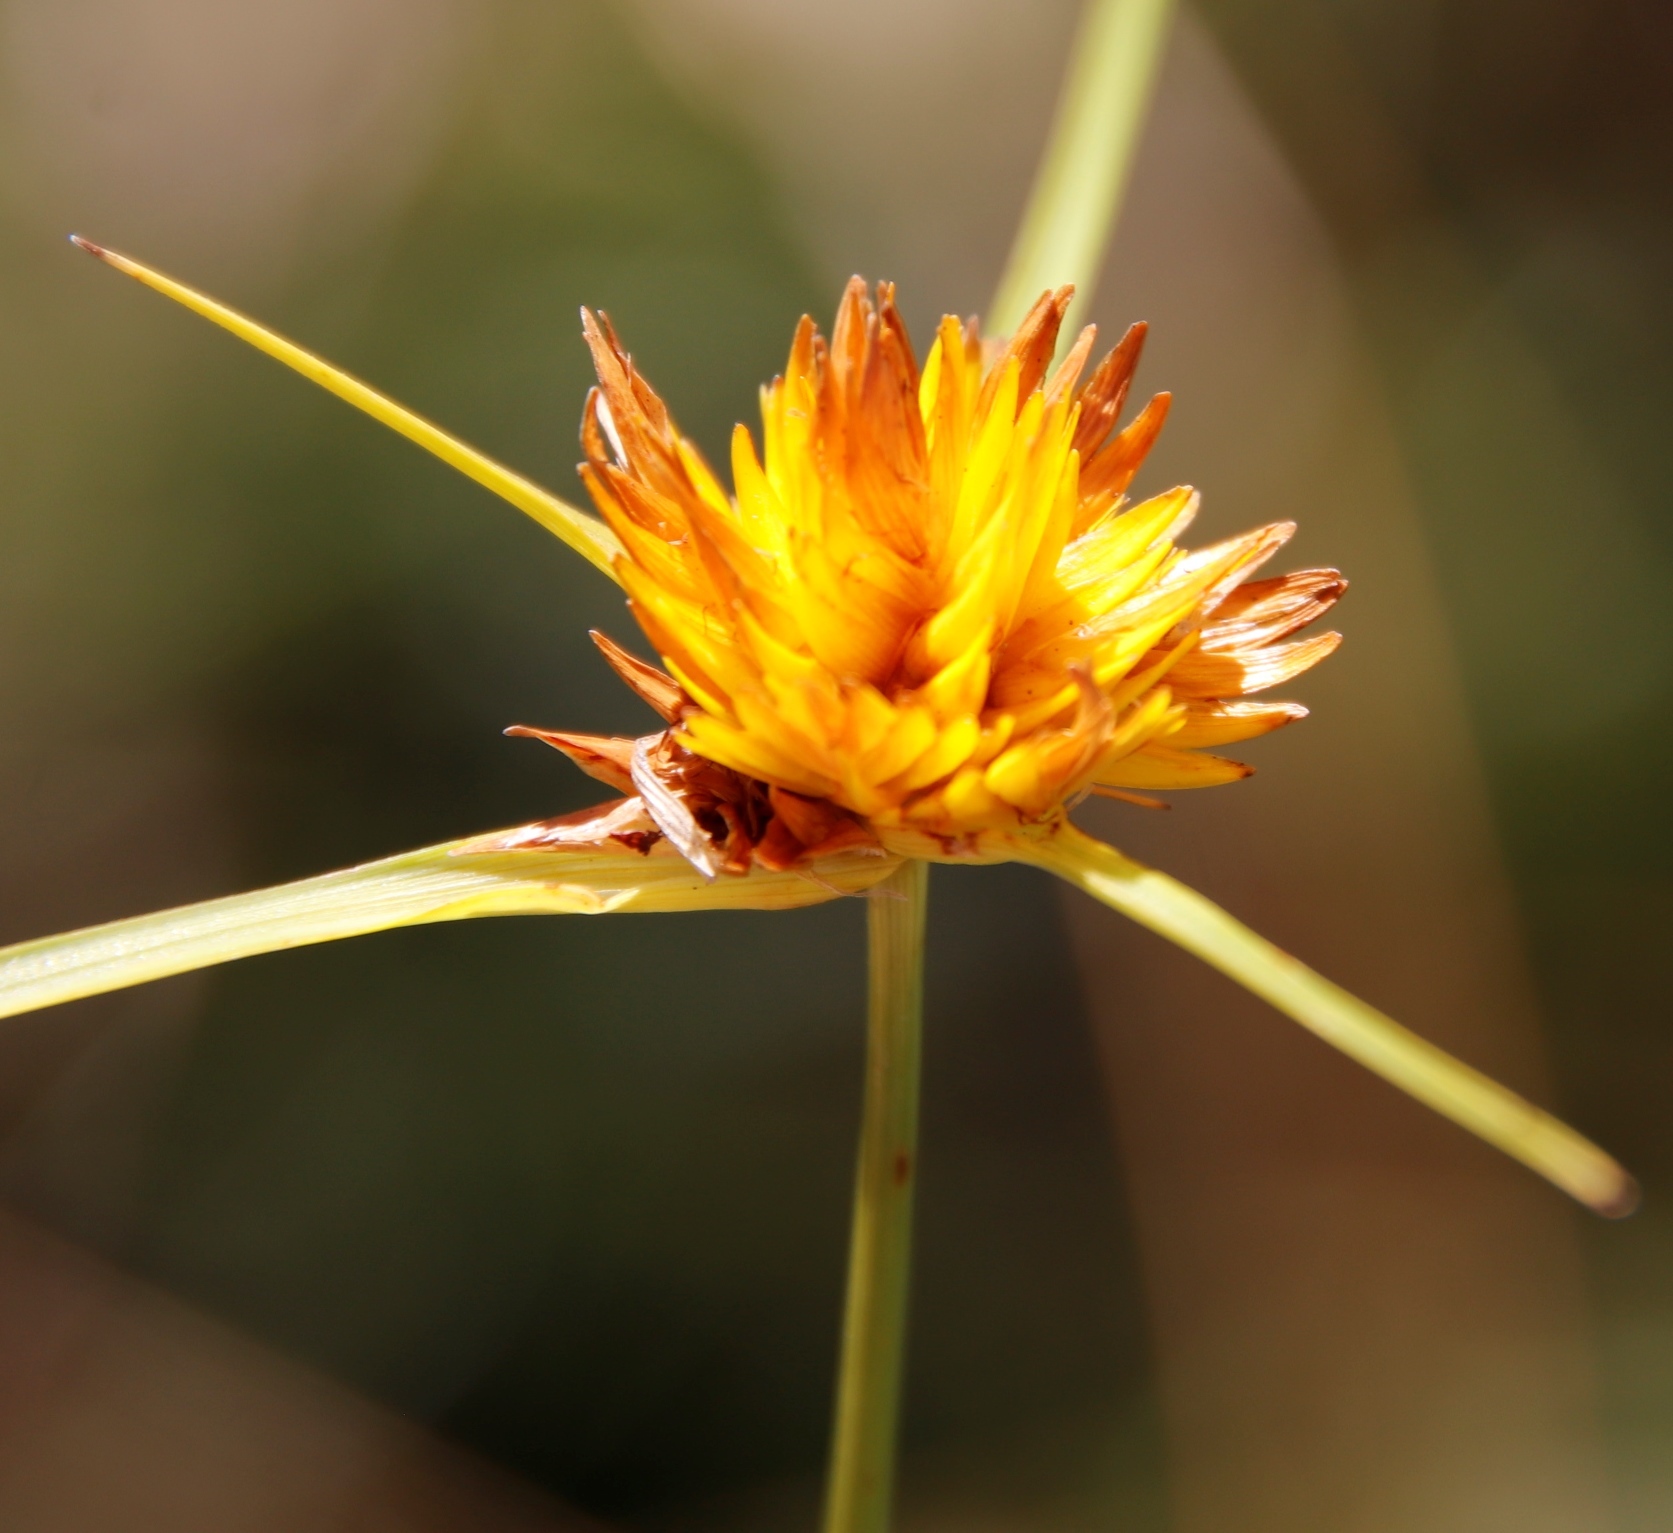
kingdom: Plantae
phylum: Tracheophyta
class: Liliopsida
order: Poales
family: Cyperaceae
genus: Cyperus
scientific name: Cyperus sphaerocephalus
